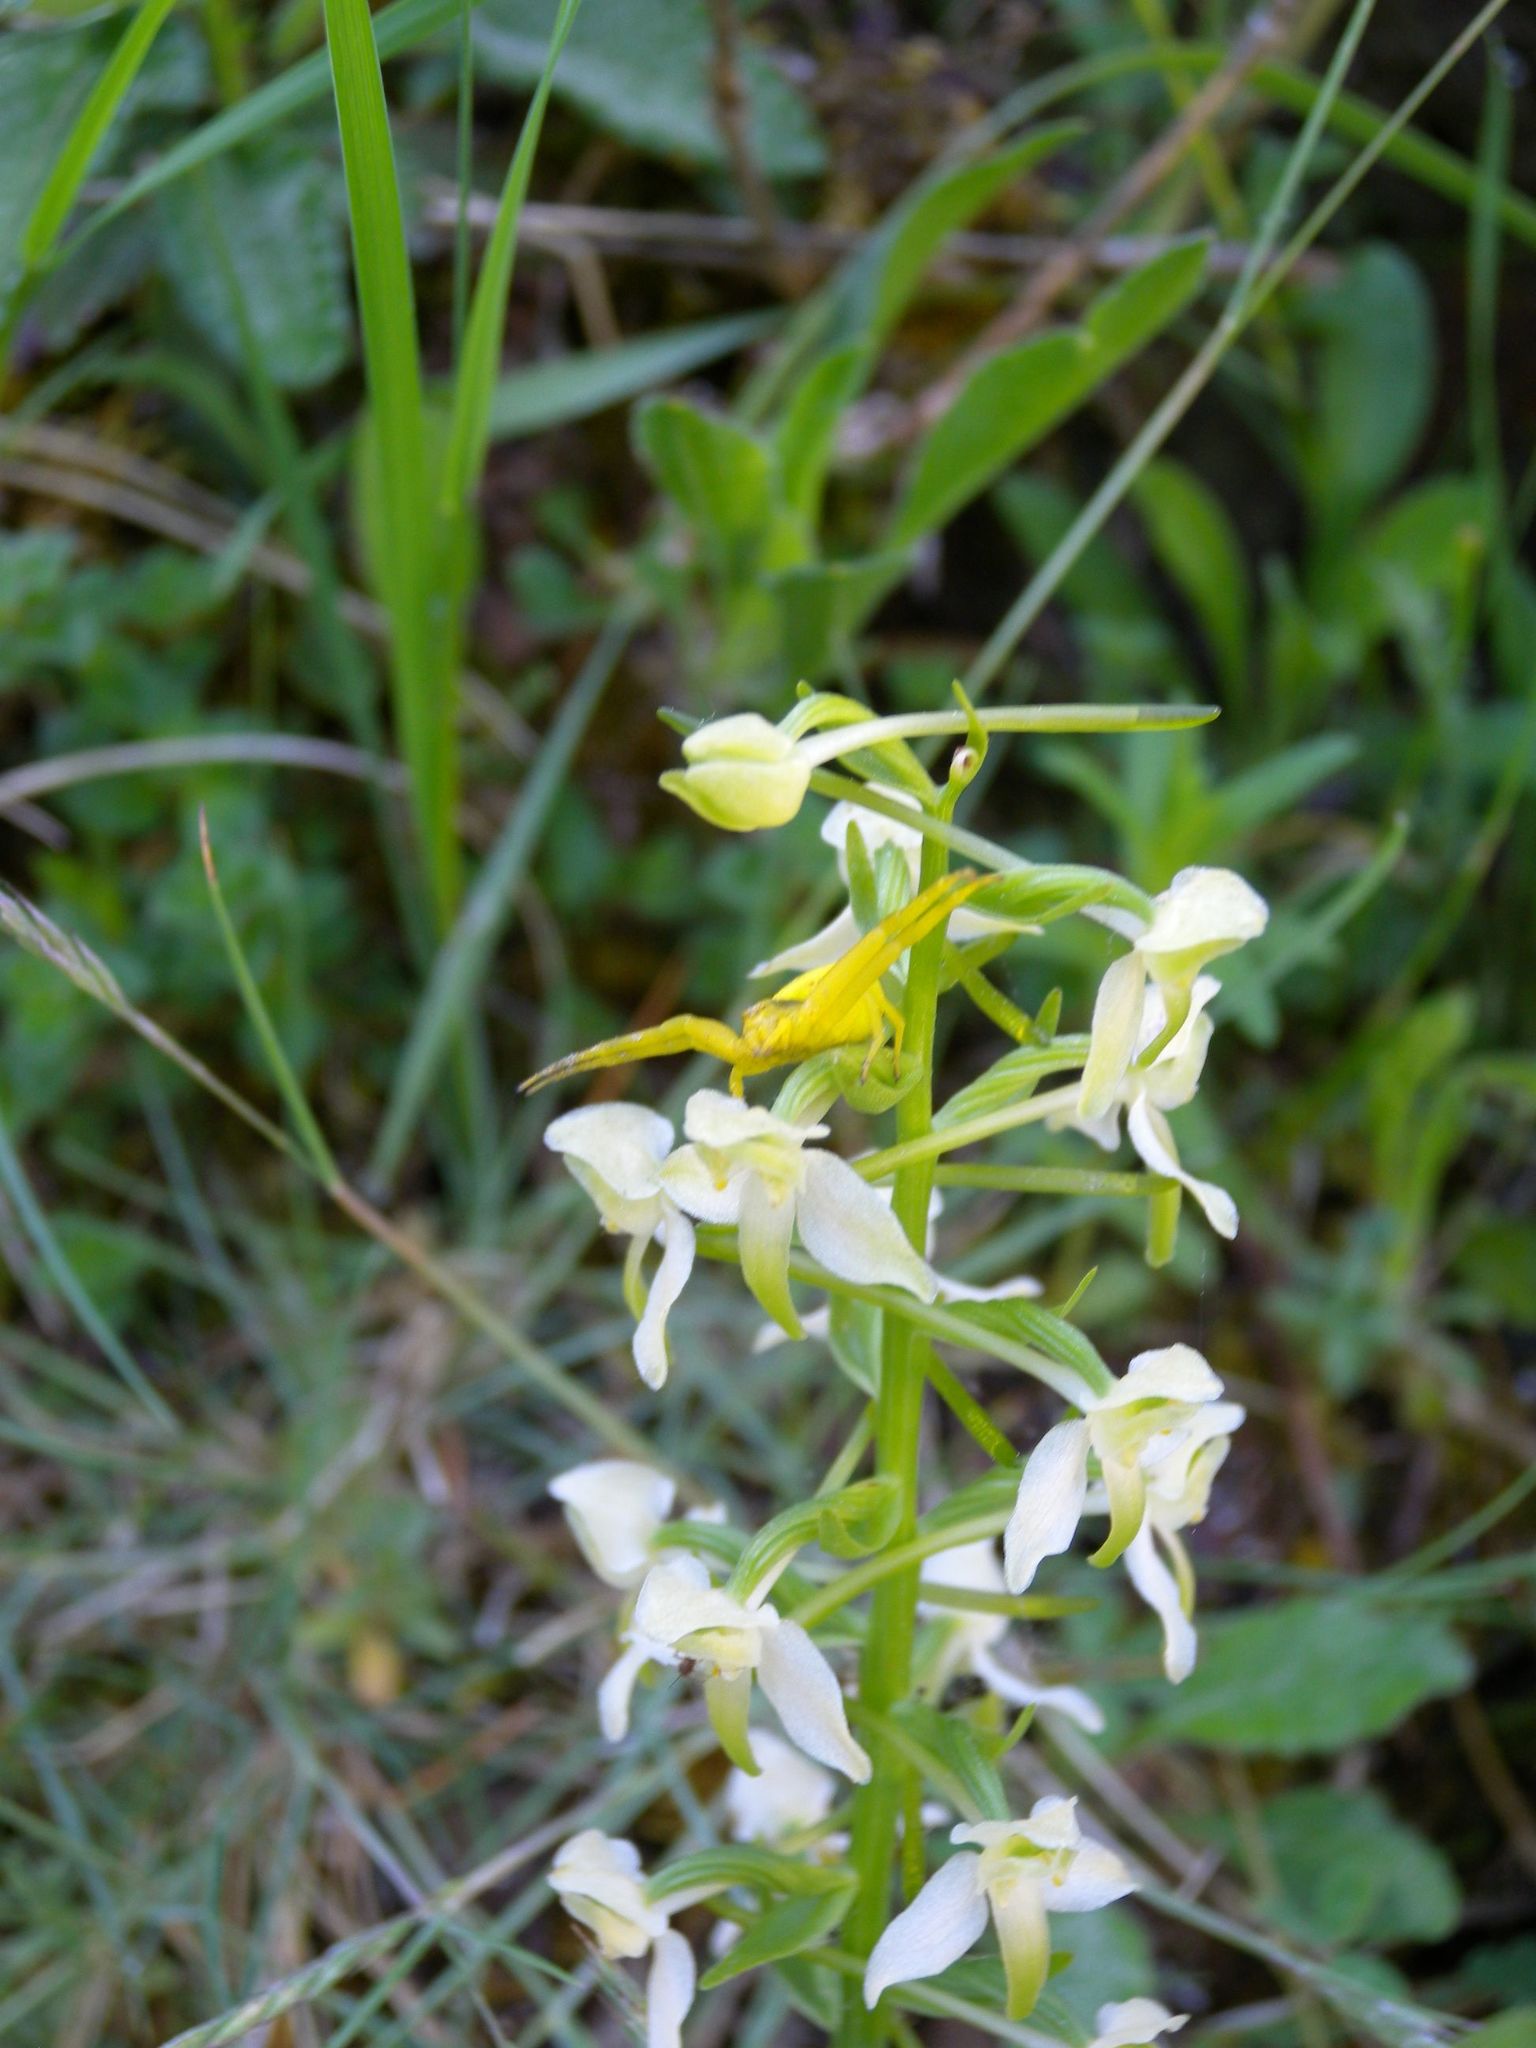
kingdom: Plantae
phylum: Tracheophyta
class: Liliopsida
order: Asparagales
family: Orchidaceae
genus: Platanthera
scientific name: Platanthera chlorantha
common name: Greater butterfly-orchid
